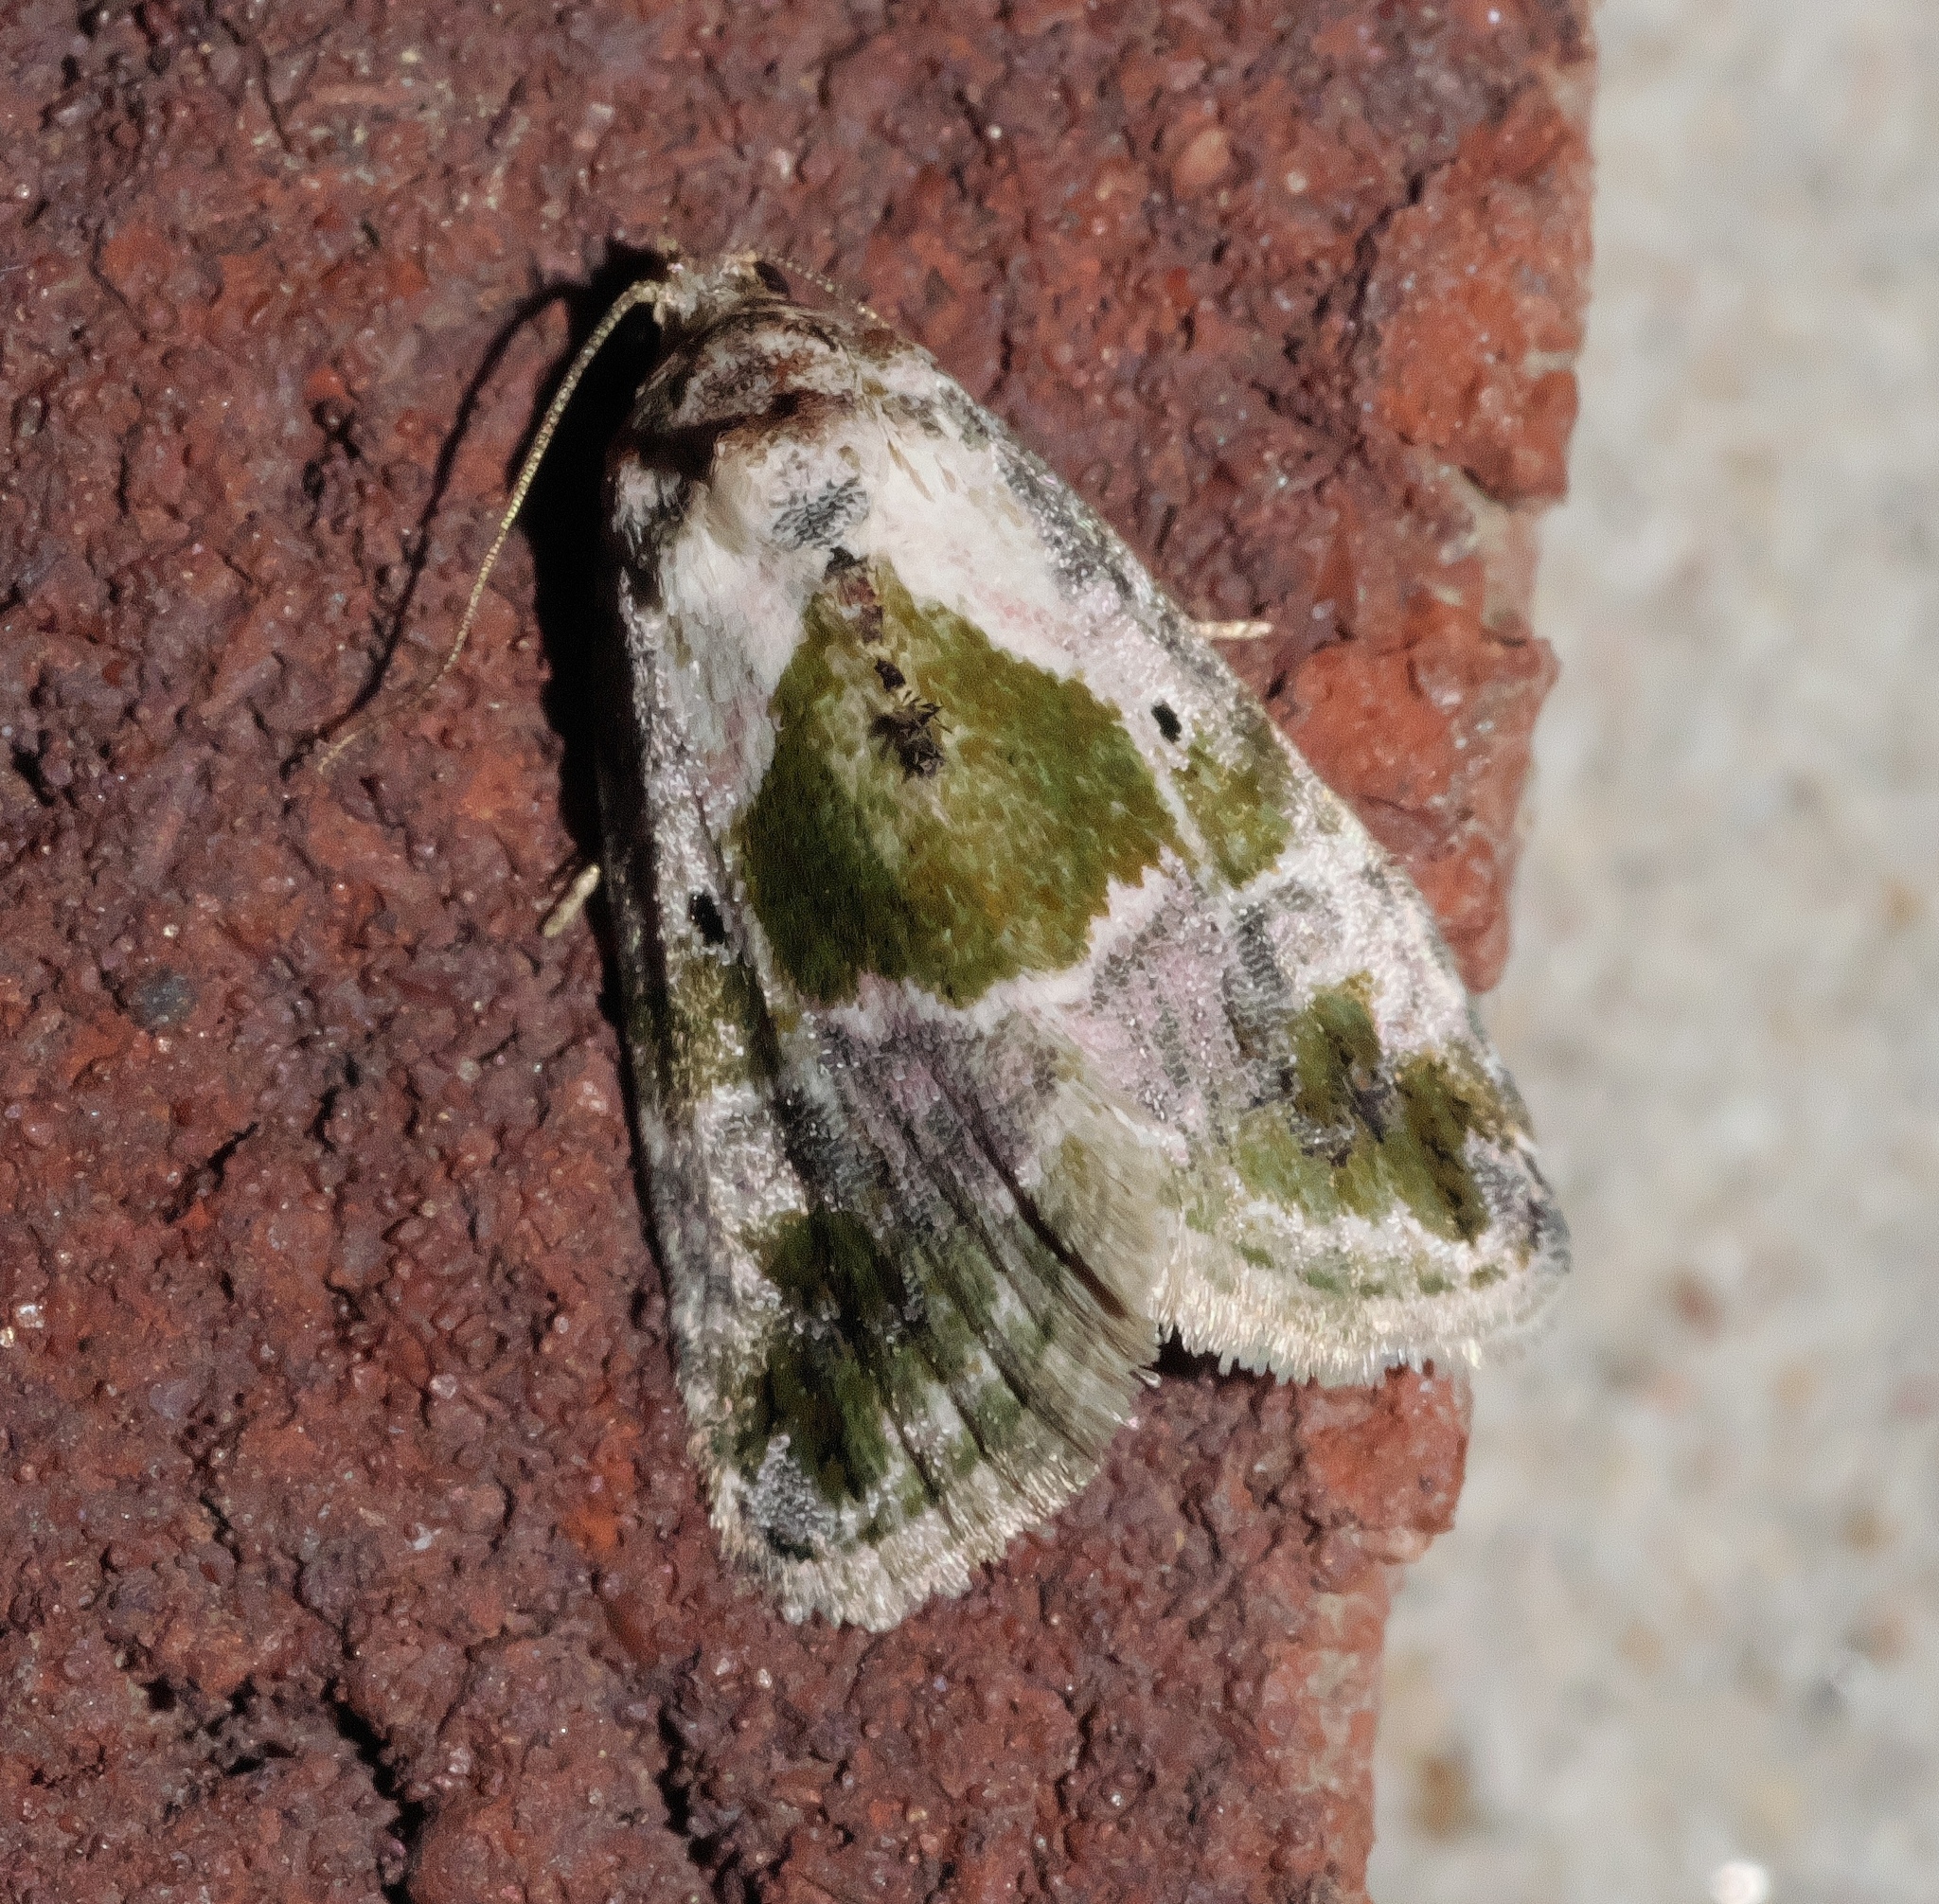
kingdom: Animalia
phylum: Arthropoda
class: Insecta
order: Lepidoptera
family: Noctuidae
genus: Maliattha
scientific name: Maliattha synochitis
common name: Black-dotted glyph
